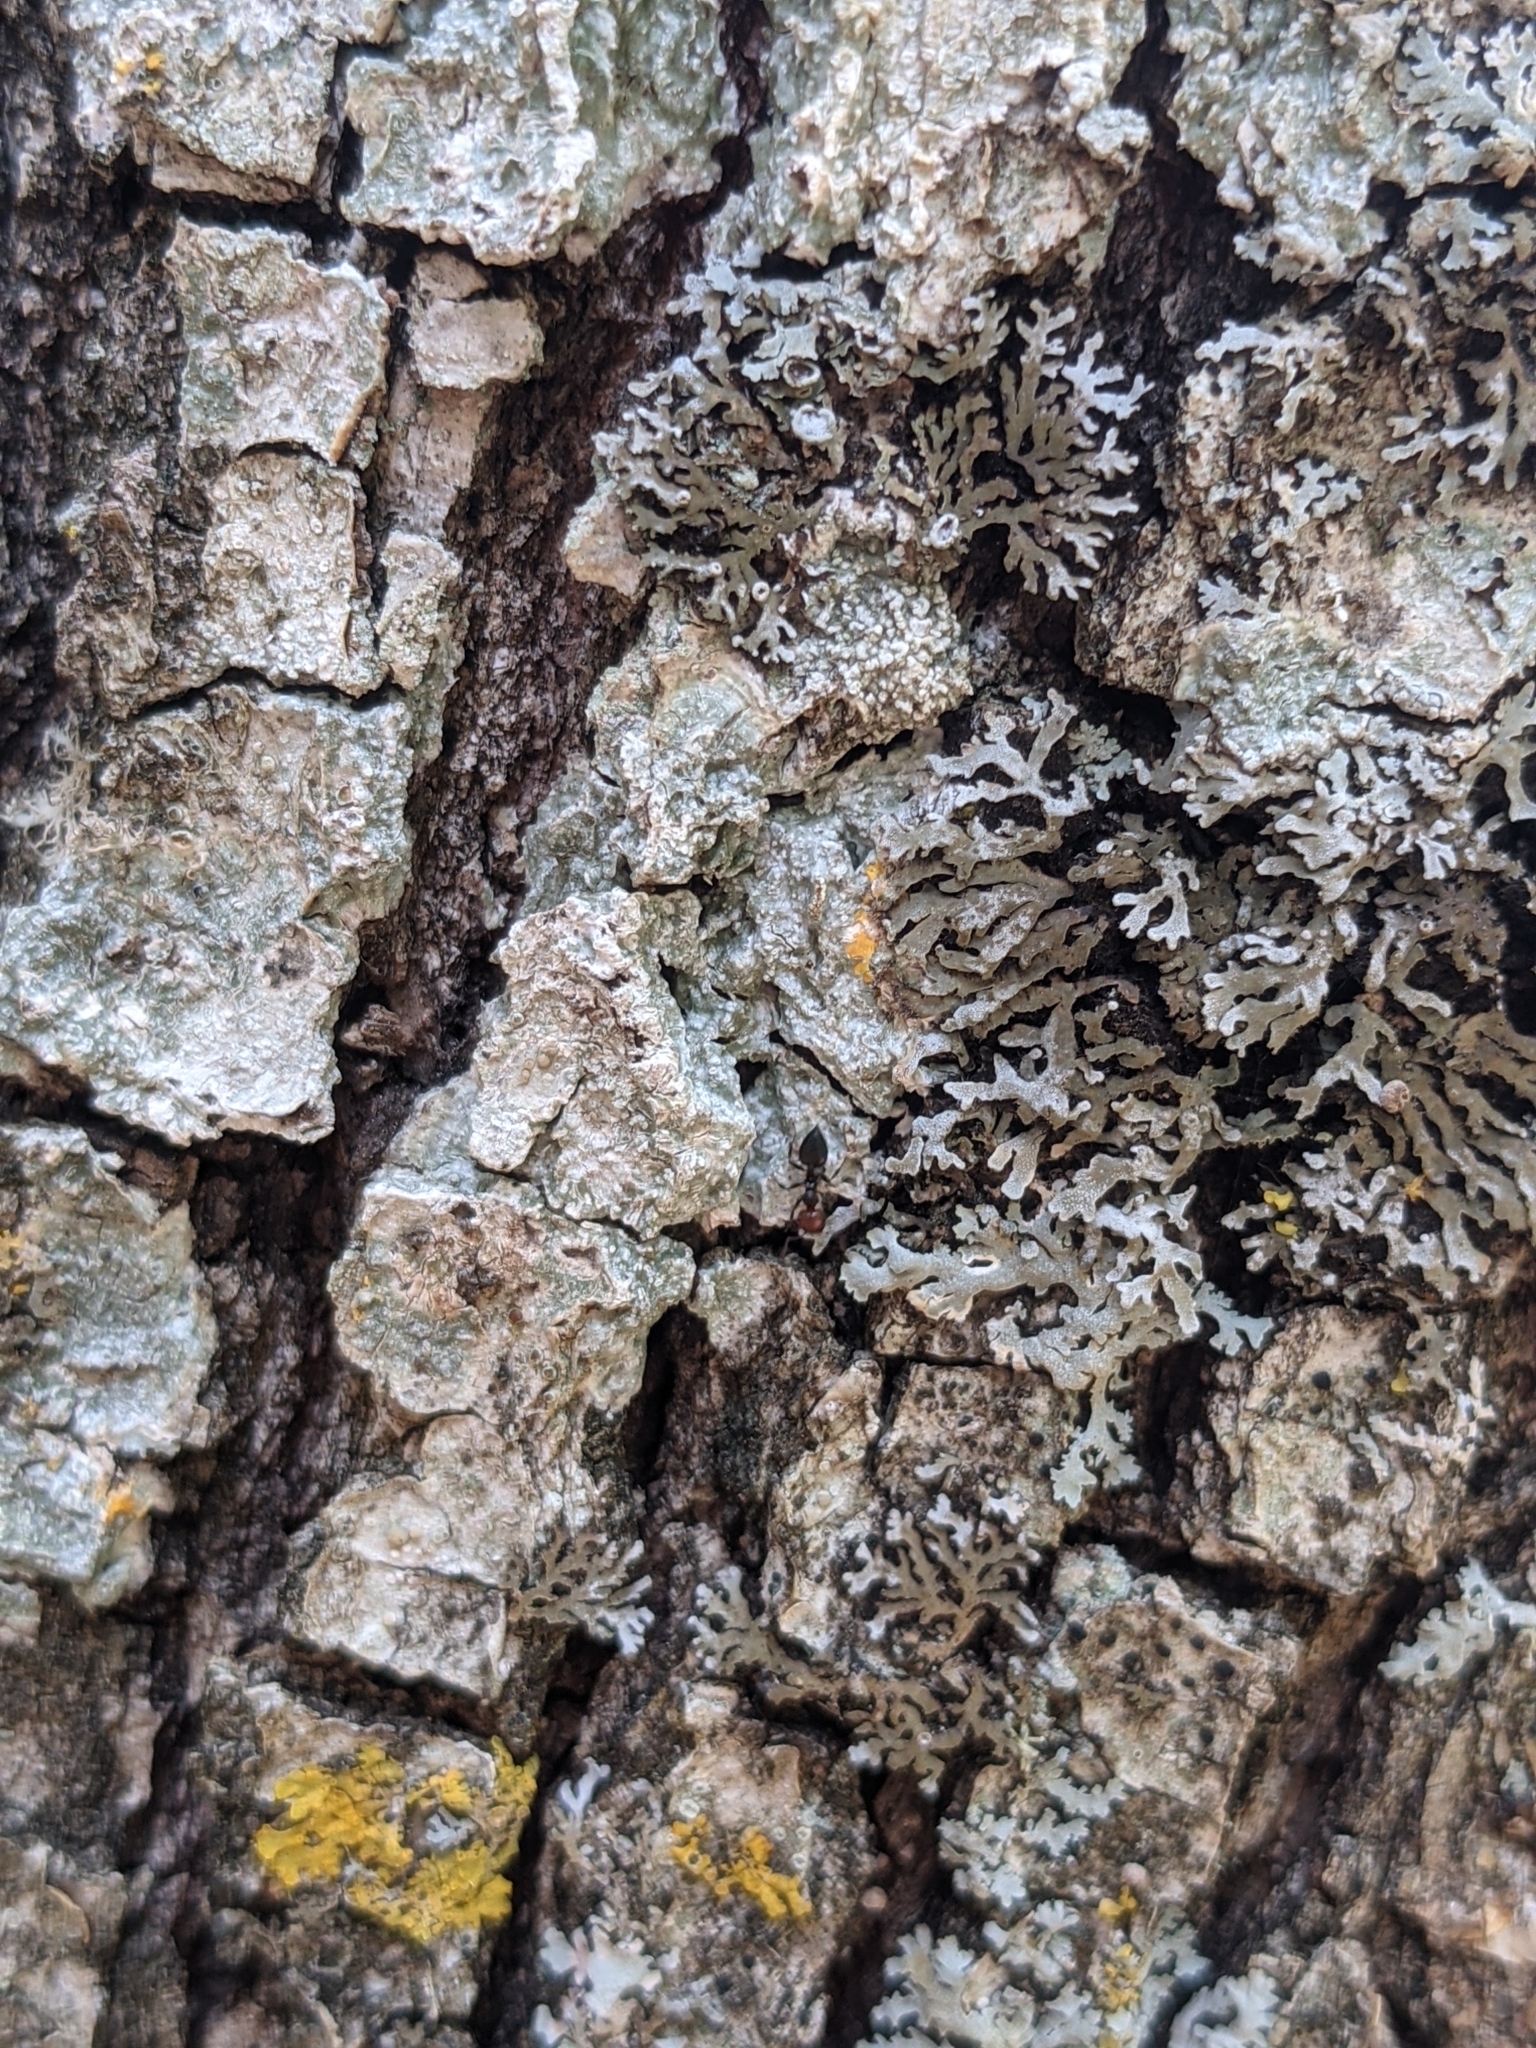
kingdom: Animalia
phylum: Arthropoda
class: Insecta
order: Hymenoptera
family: Formicidae
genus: Crematogaster
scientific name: Crematogaster scutellaris
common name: Fourmi du liège
